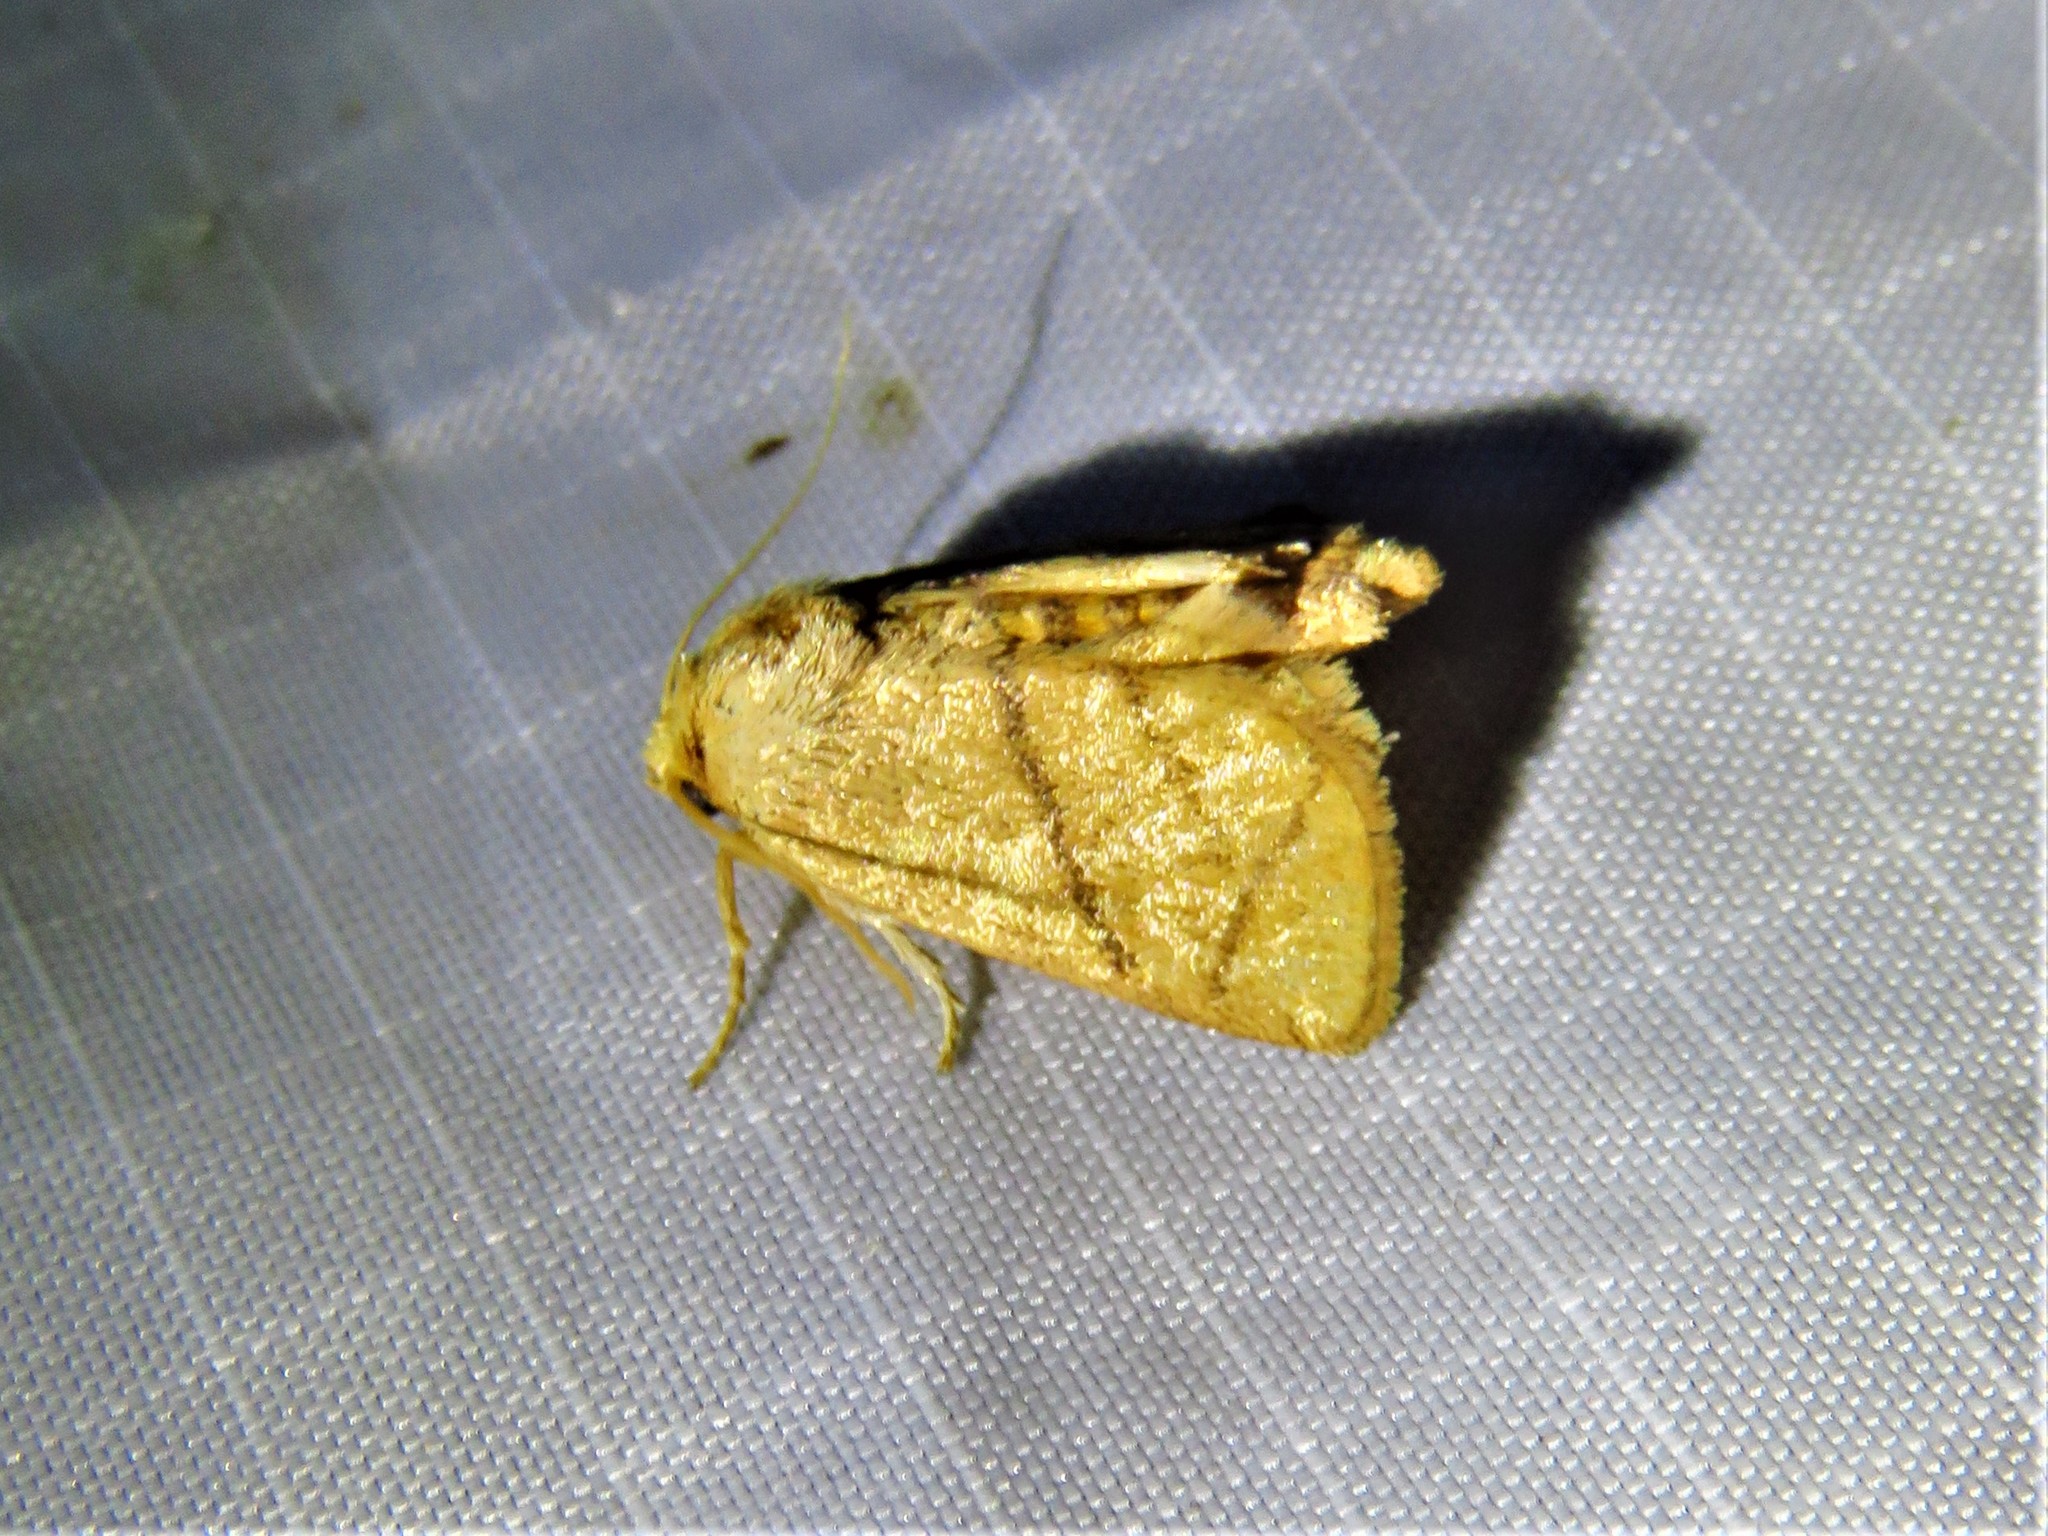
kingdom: Animalia
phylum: Arthropoda
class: Insecta
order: Lepidoptera
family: Limacodidae
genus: Apoda
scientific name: Apoda y-inversa
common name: Yellow-collared slug moth
